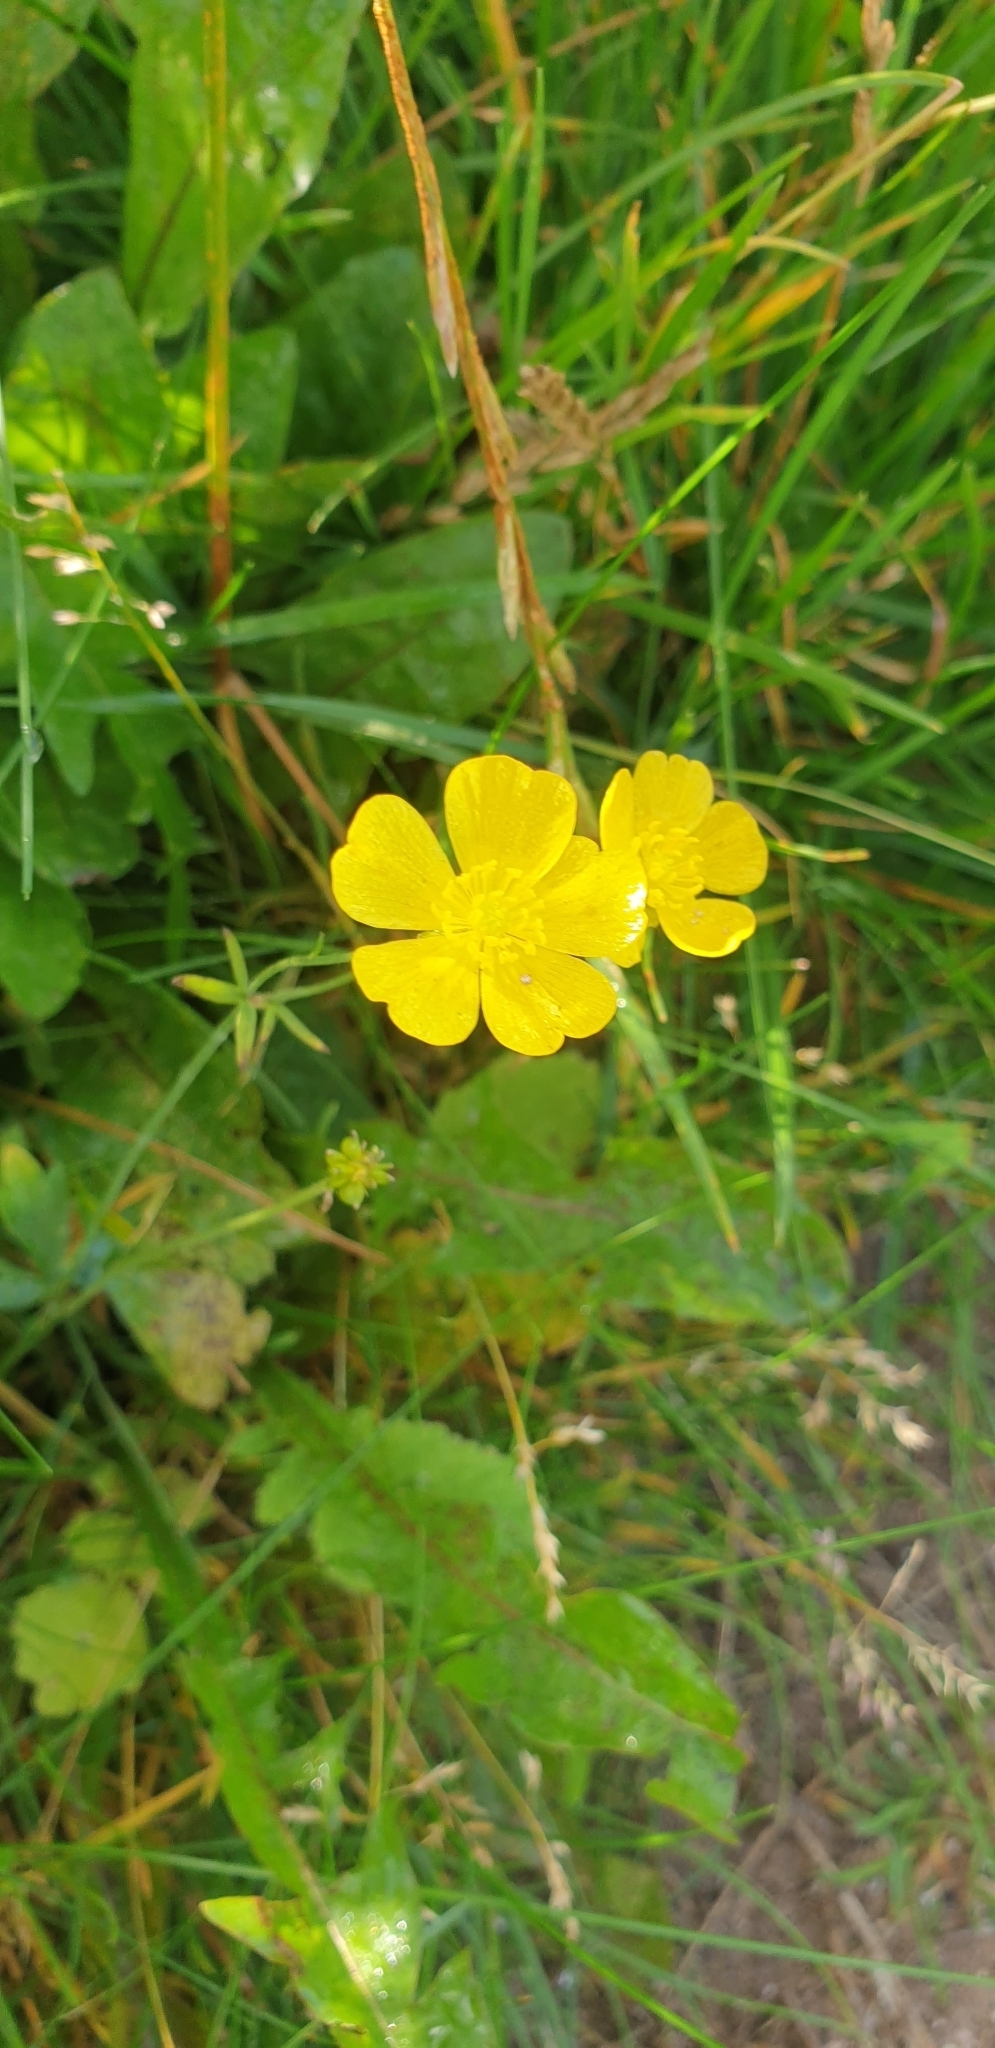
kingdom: Plantae
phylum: Tracheophyta
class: Magnoliopsida
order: Ranunculales
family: Ranunculaceae
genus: Ranunculus
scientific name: Ranunculus acris
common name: Meadow buttercup
